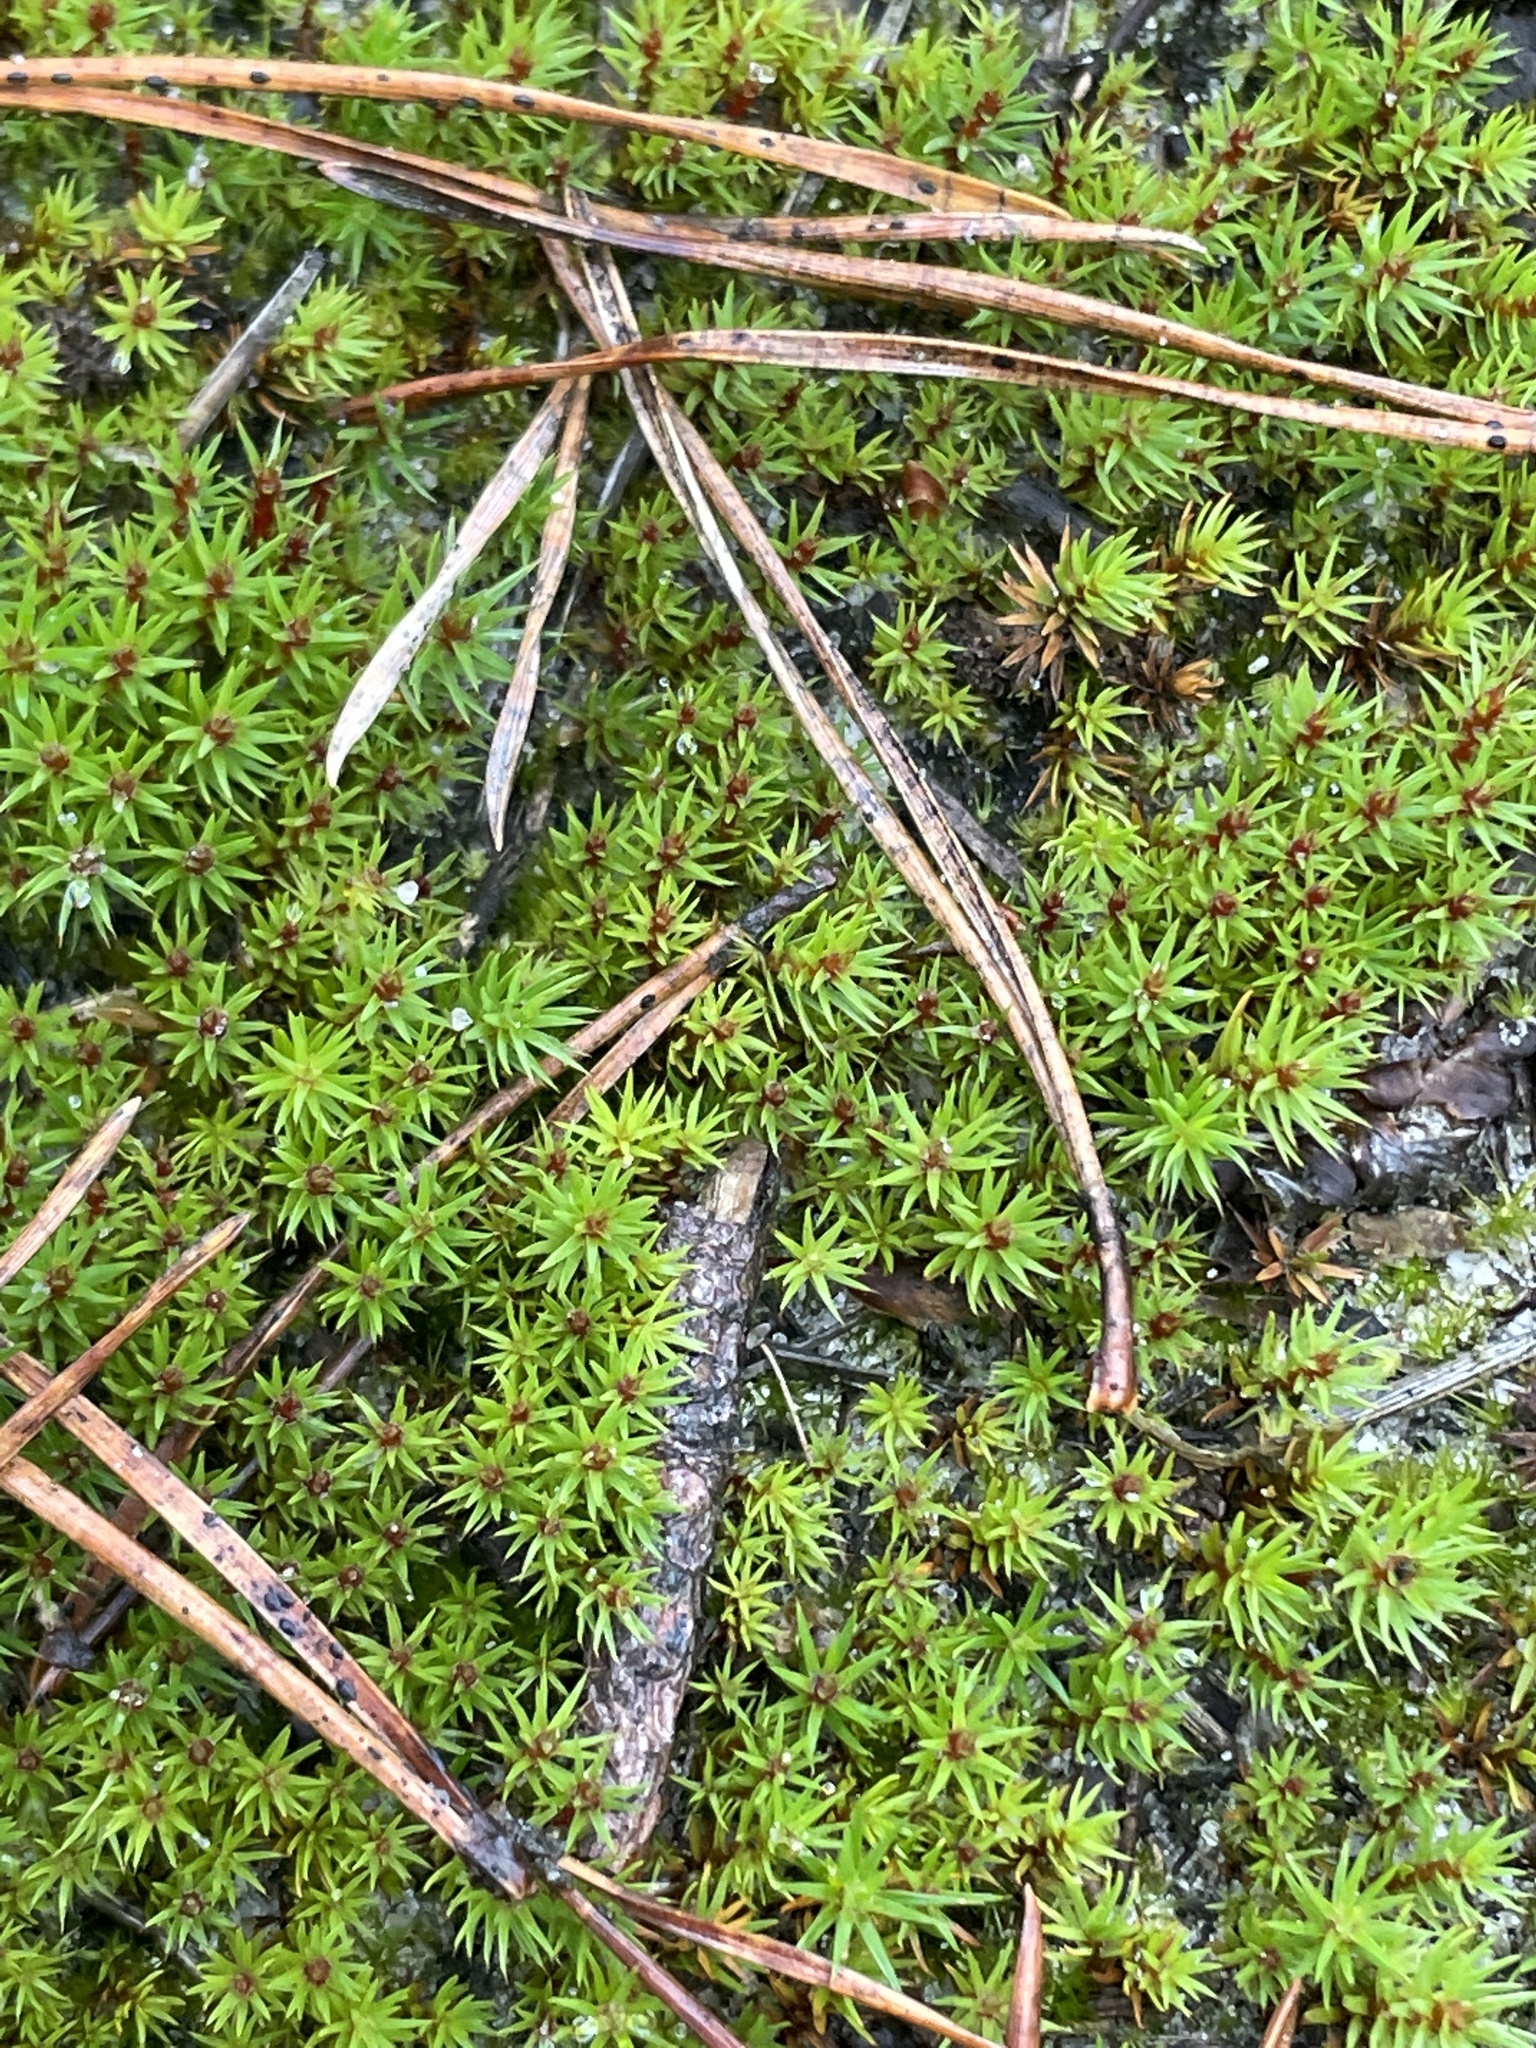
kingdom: Plantae
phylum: Bryophyta
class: Polytrichopsida
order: Polytrichales
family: Polytrichaceae
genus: Pogonatum
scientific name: Pogonatum urnigerum
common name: Urn hair moss
